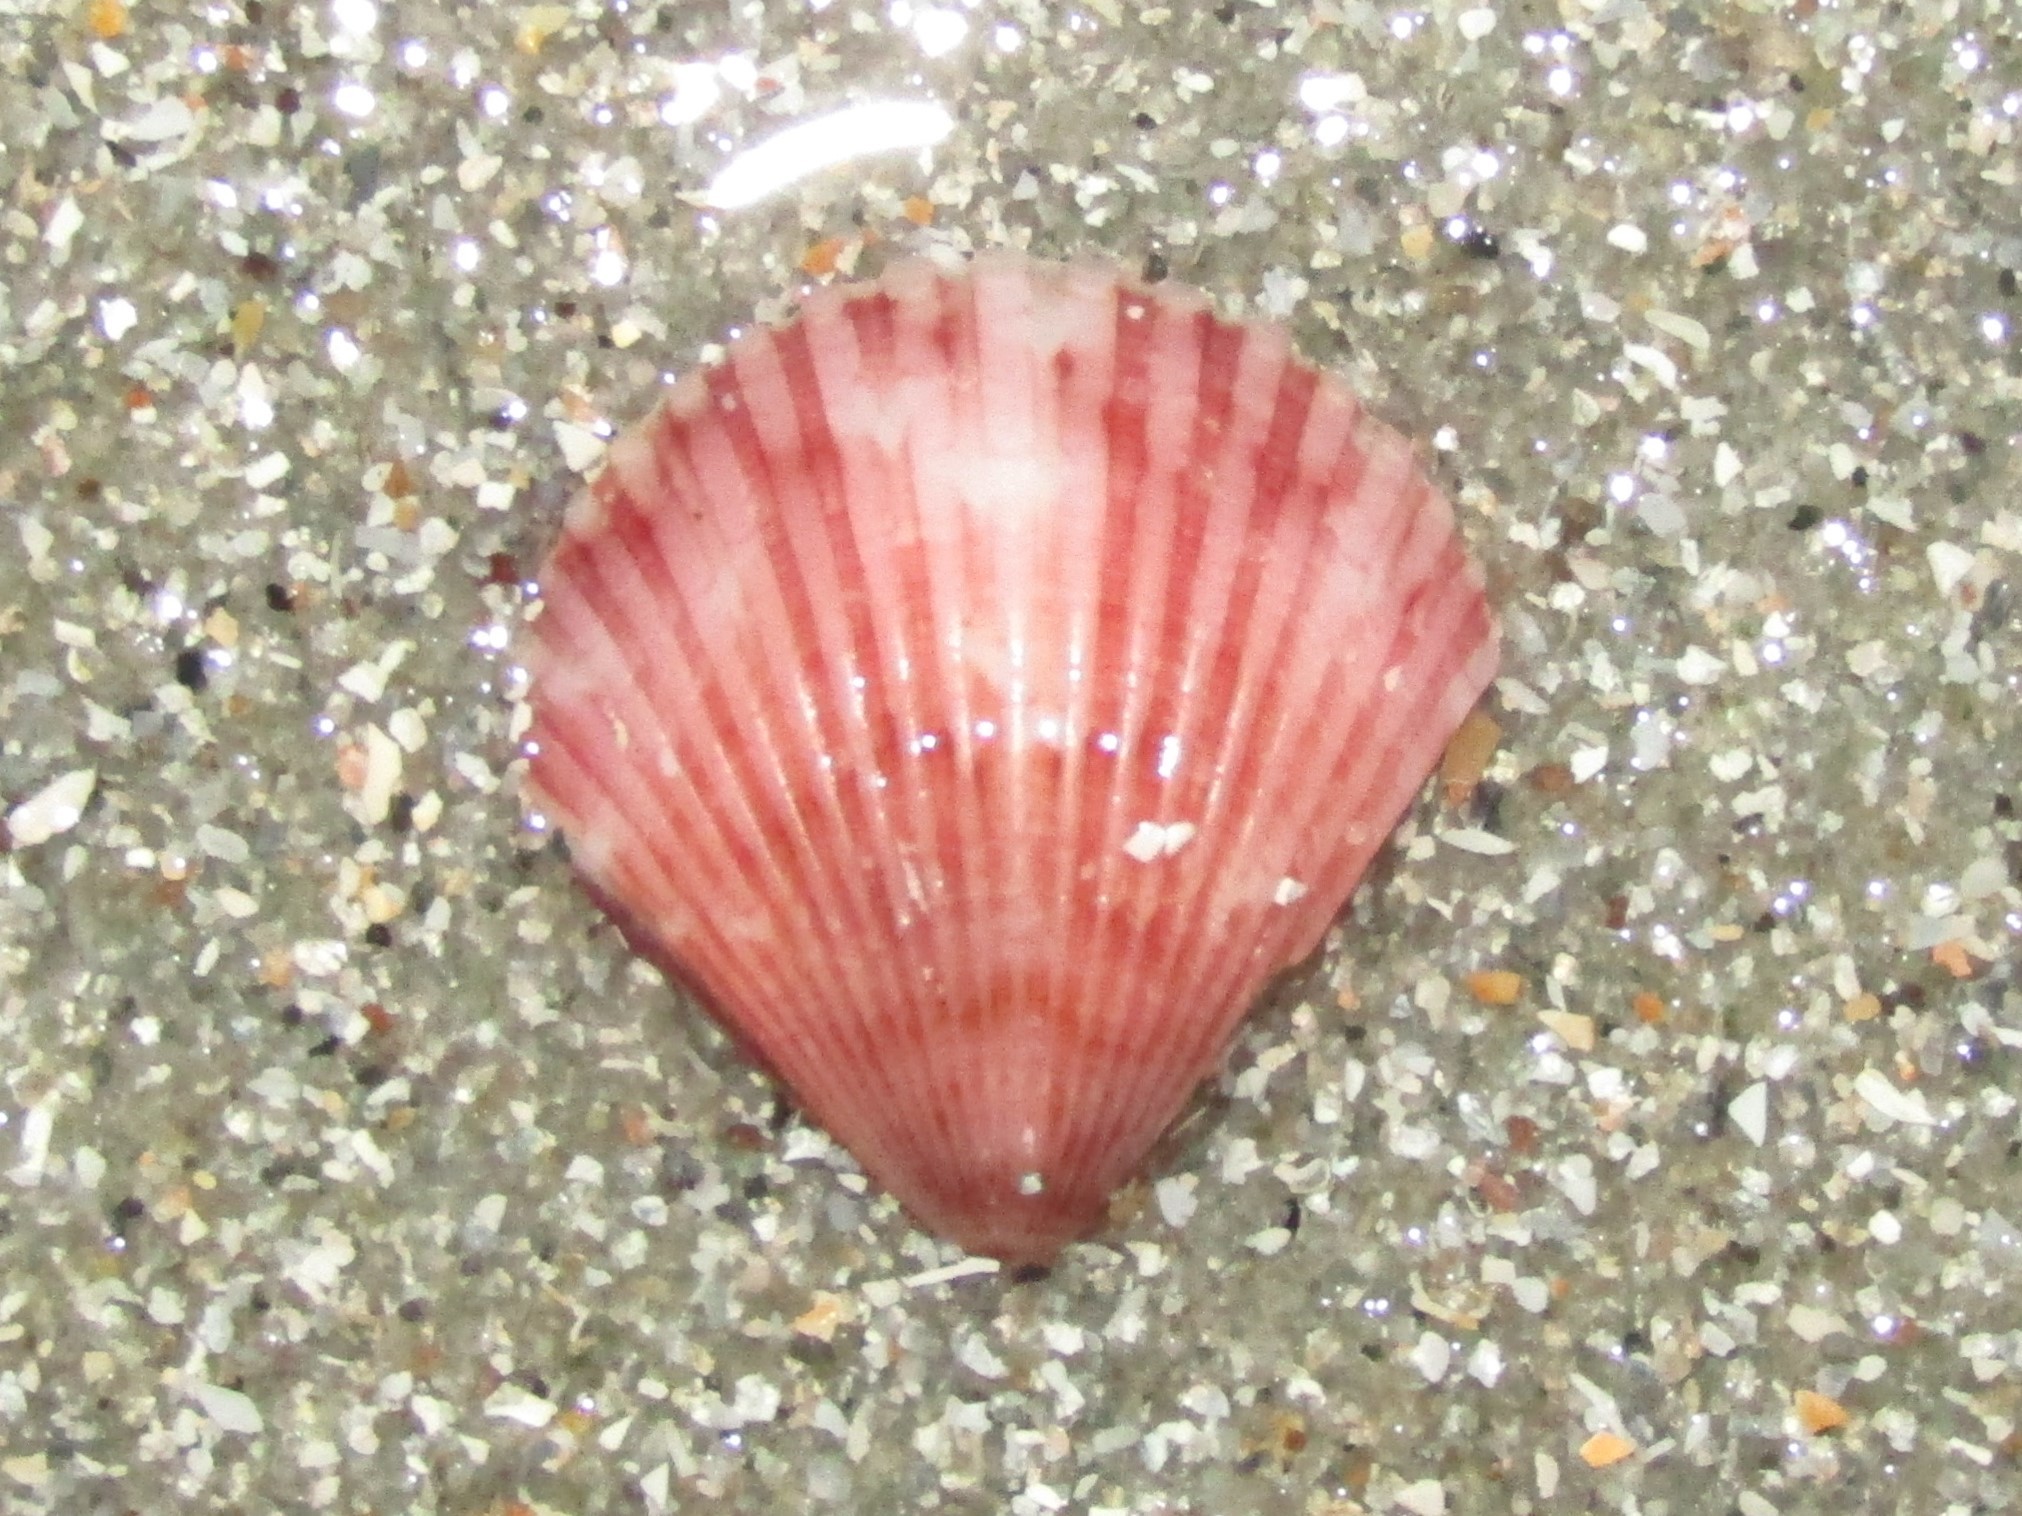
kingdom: Animalia
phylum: Mollusca
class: Bivalvia
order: Pectinida
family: Pectinidae
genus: Argopecten
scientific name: Argopecten gibbus
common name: Atlantic calico scallop
